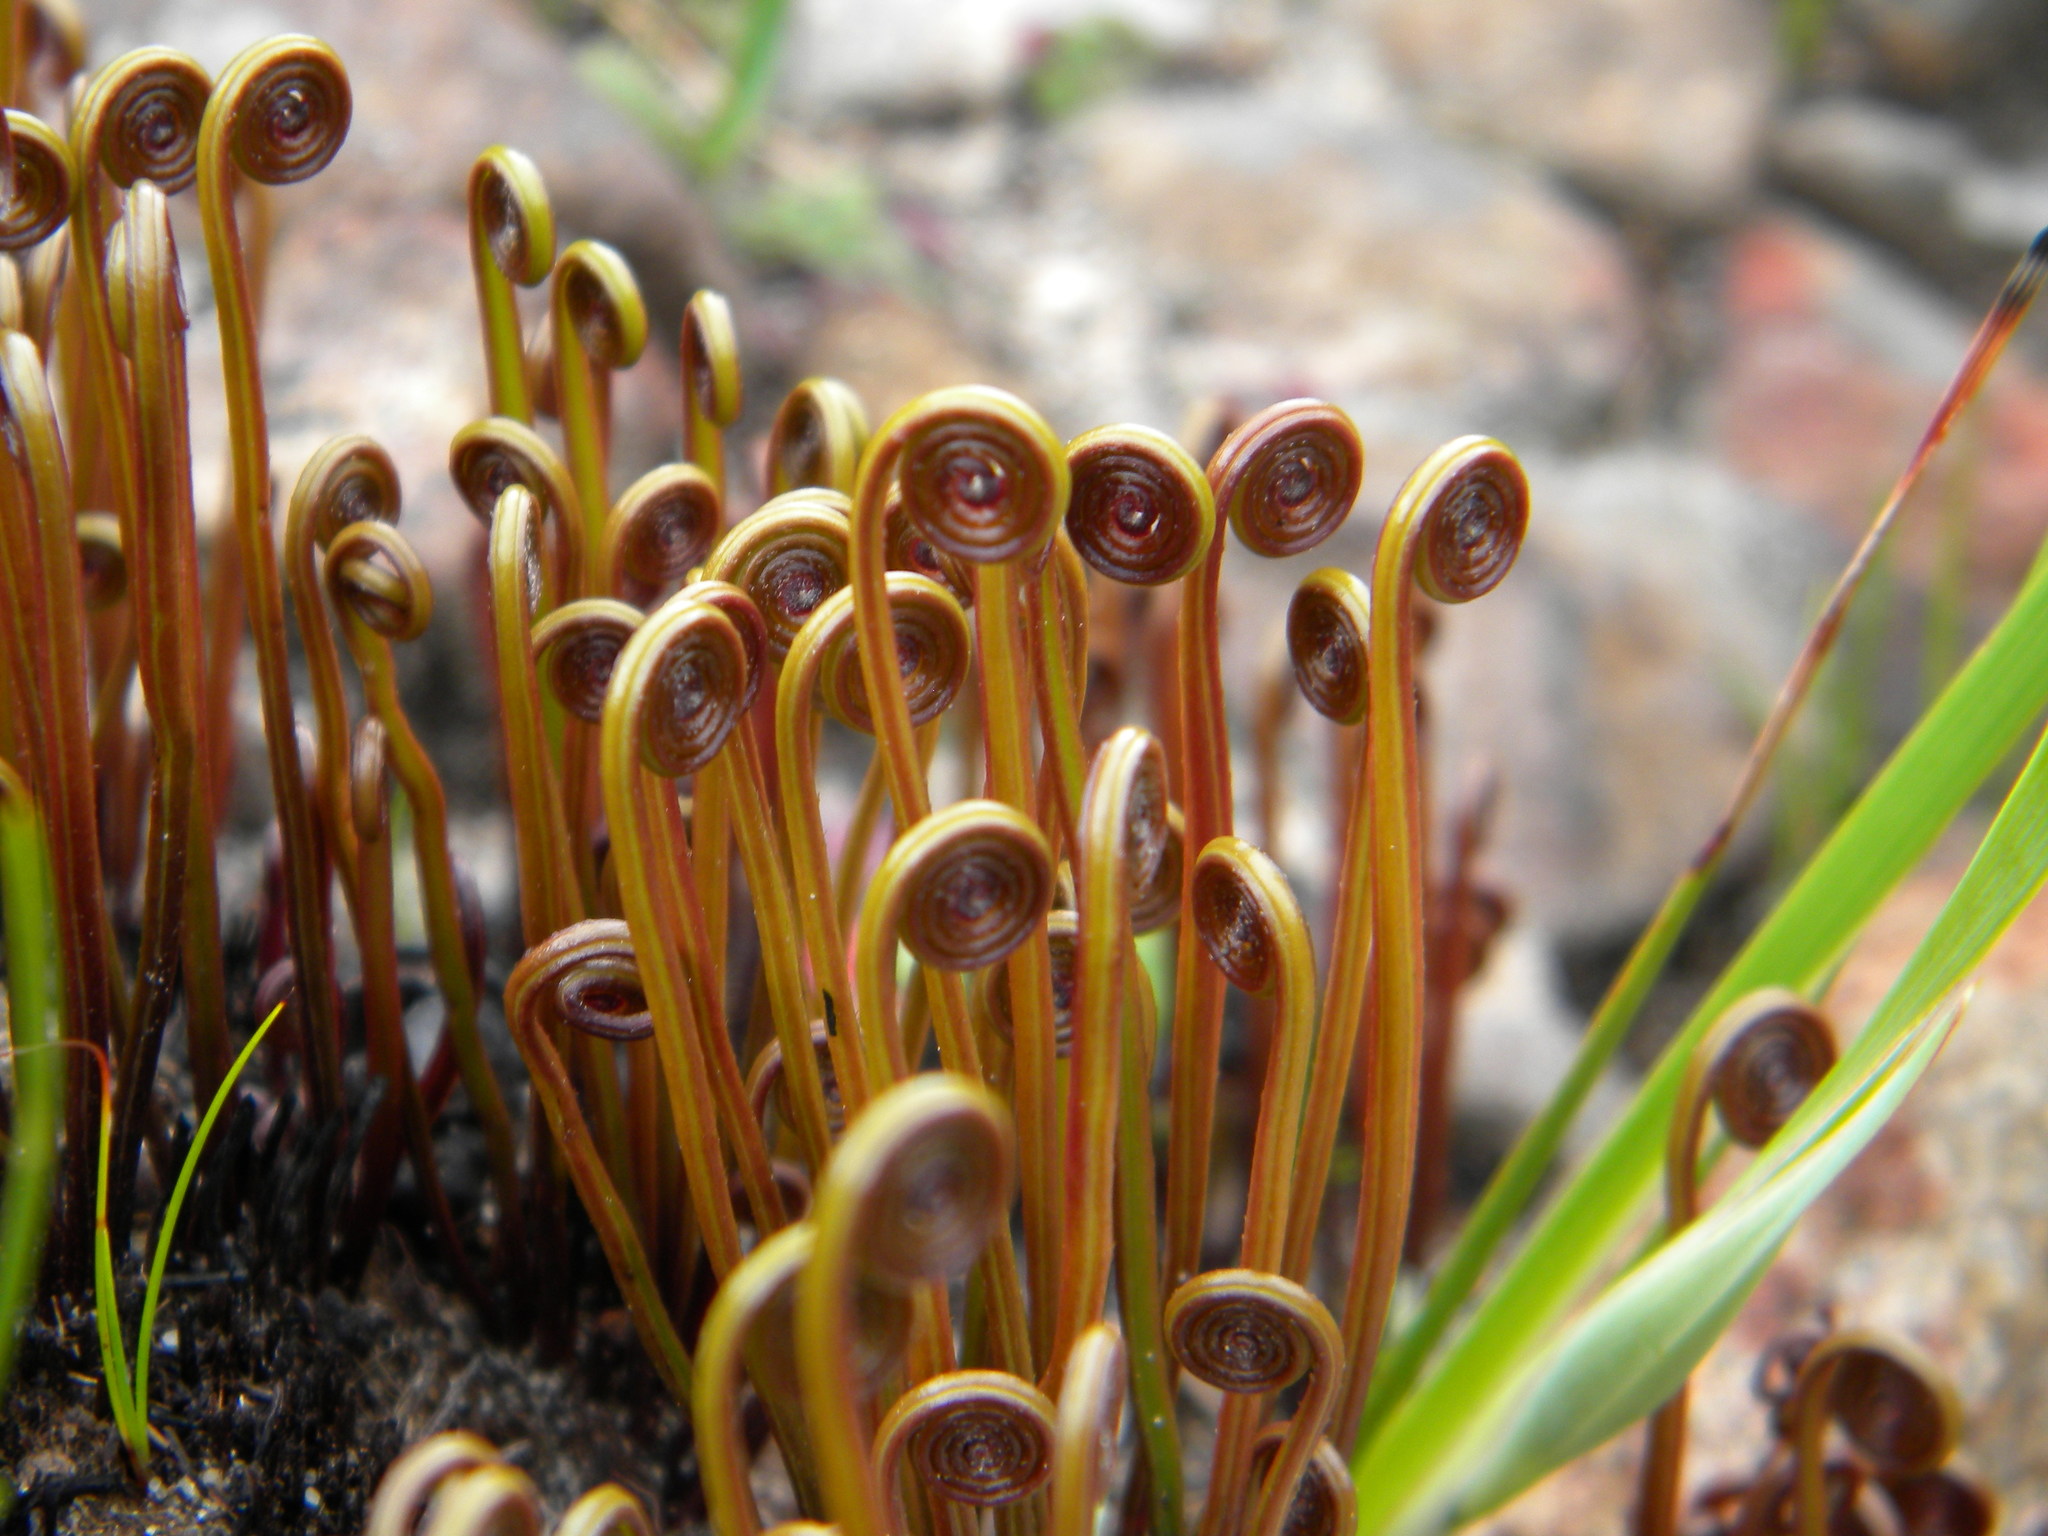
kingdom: Plantae
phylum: Tracheophyta
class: Polypodiopsida
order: Schizaeales
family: Schizaeaceae
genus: Schizaea
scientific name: Schizaea pectinata
